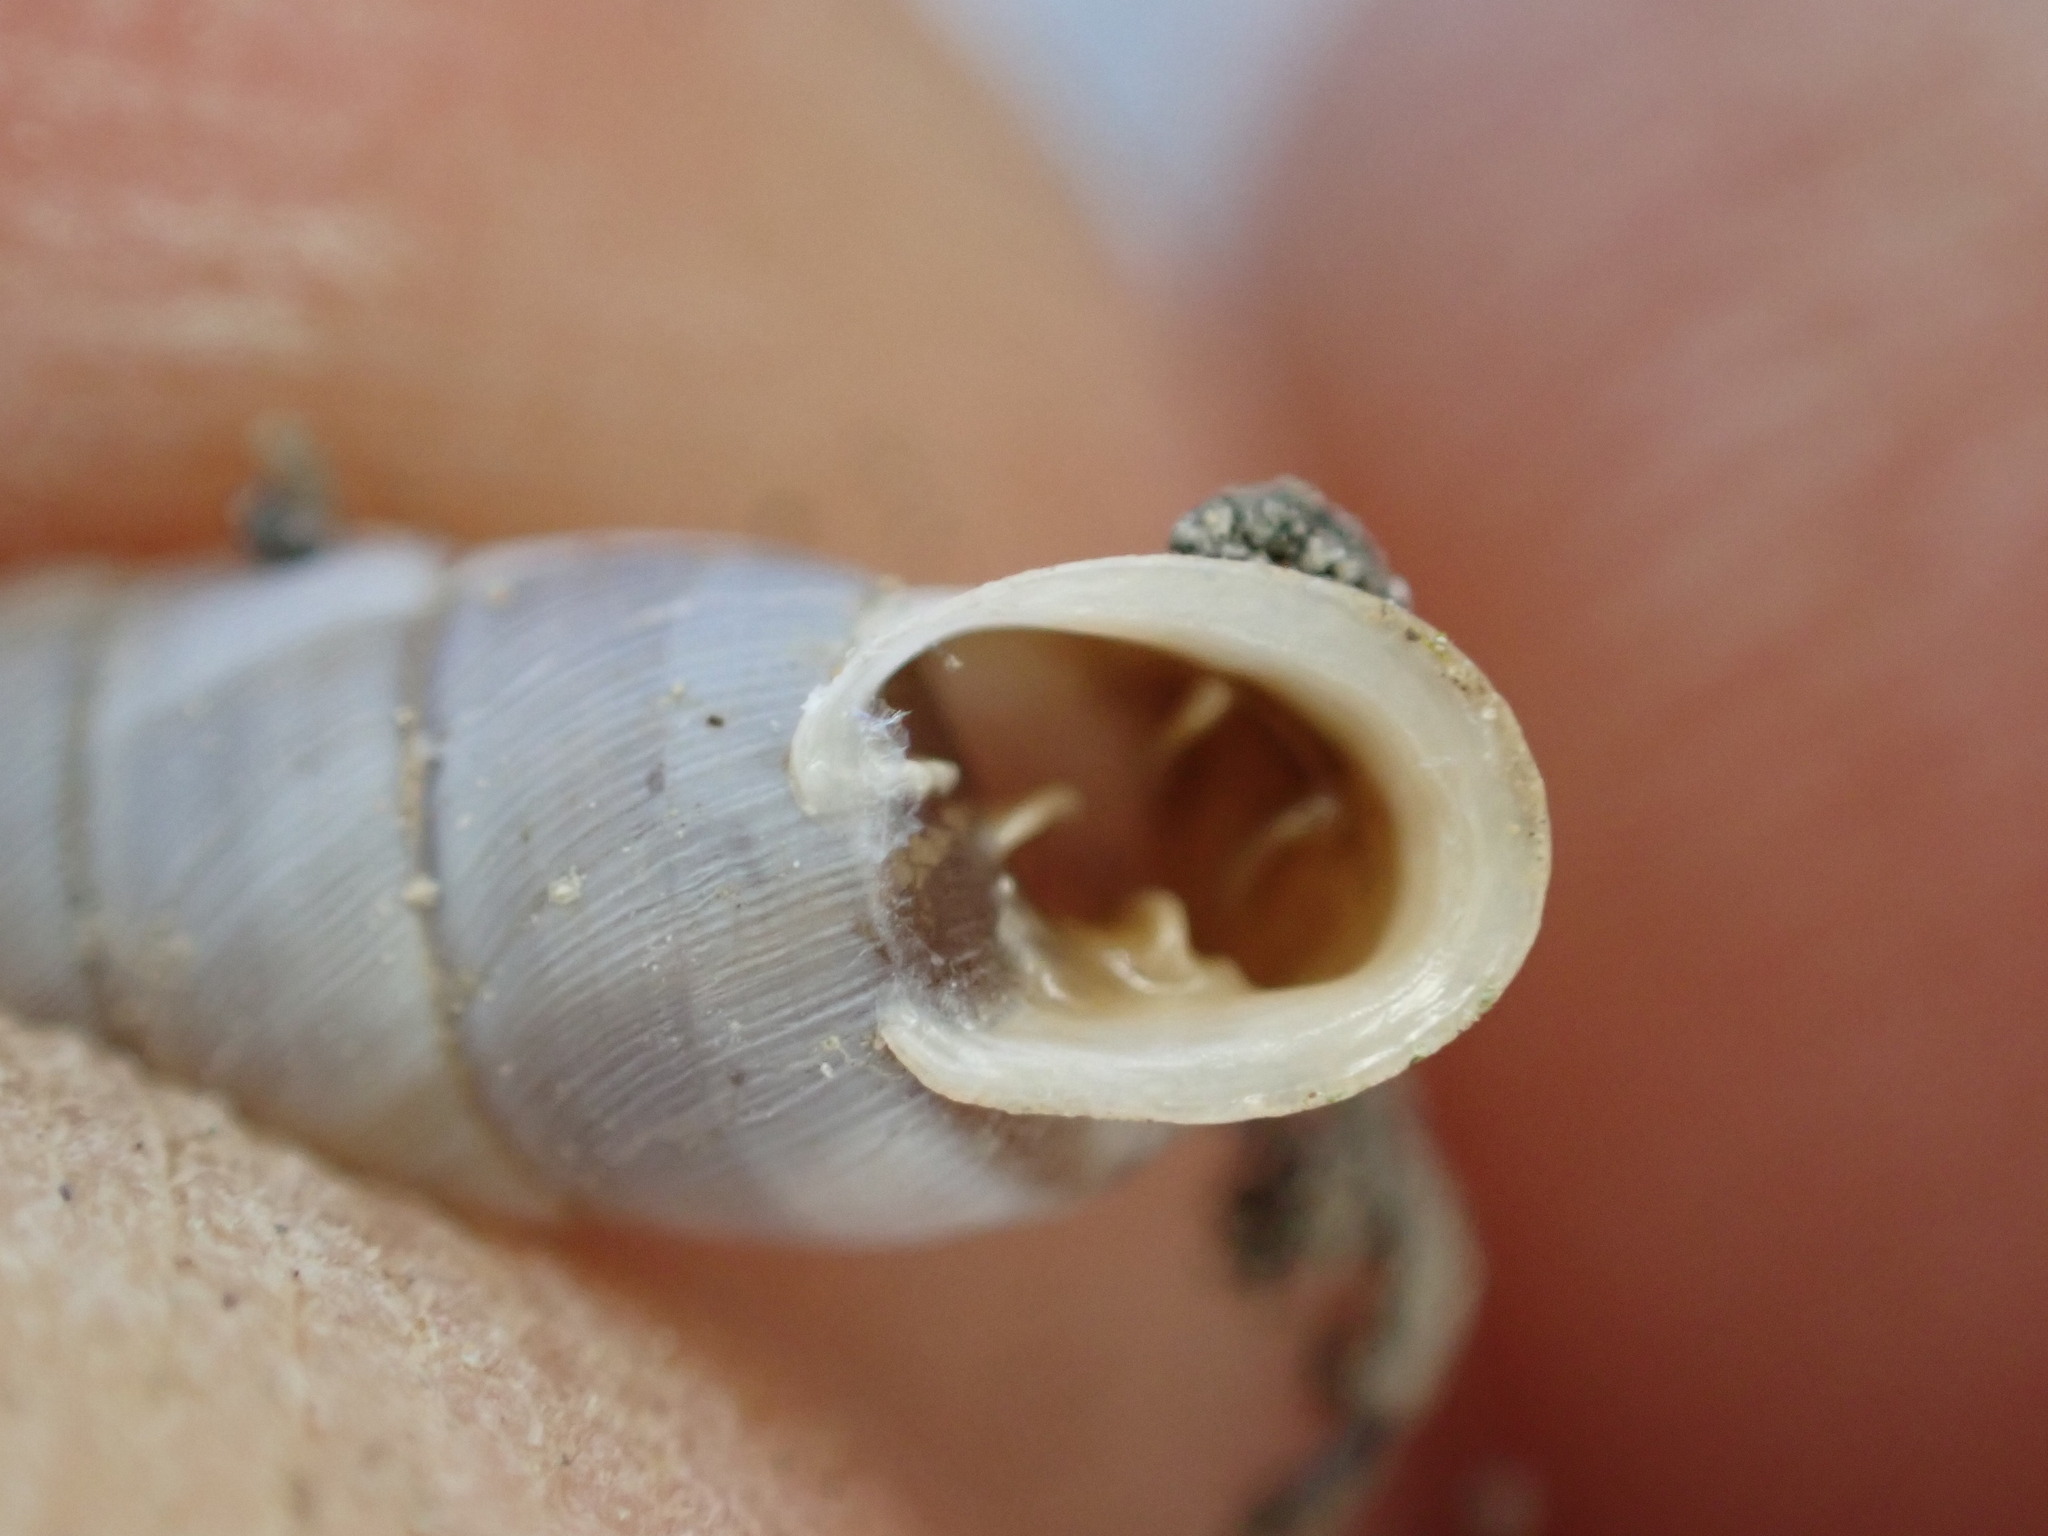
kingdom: Animalia
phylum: Mollusca
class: Gastropoda
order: Stylommatophora
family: Chondrinidae
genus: Solatopupa
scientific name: Solatopupa similis
